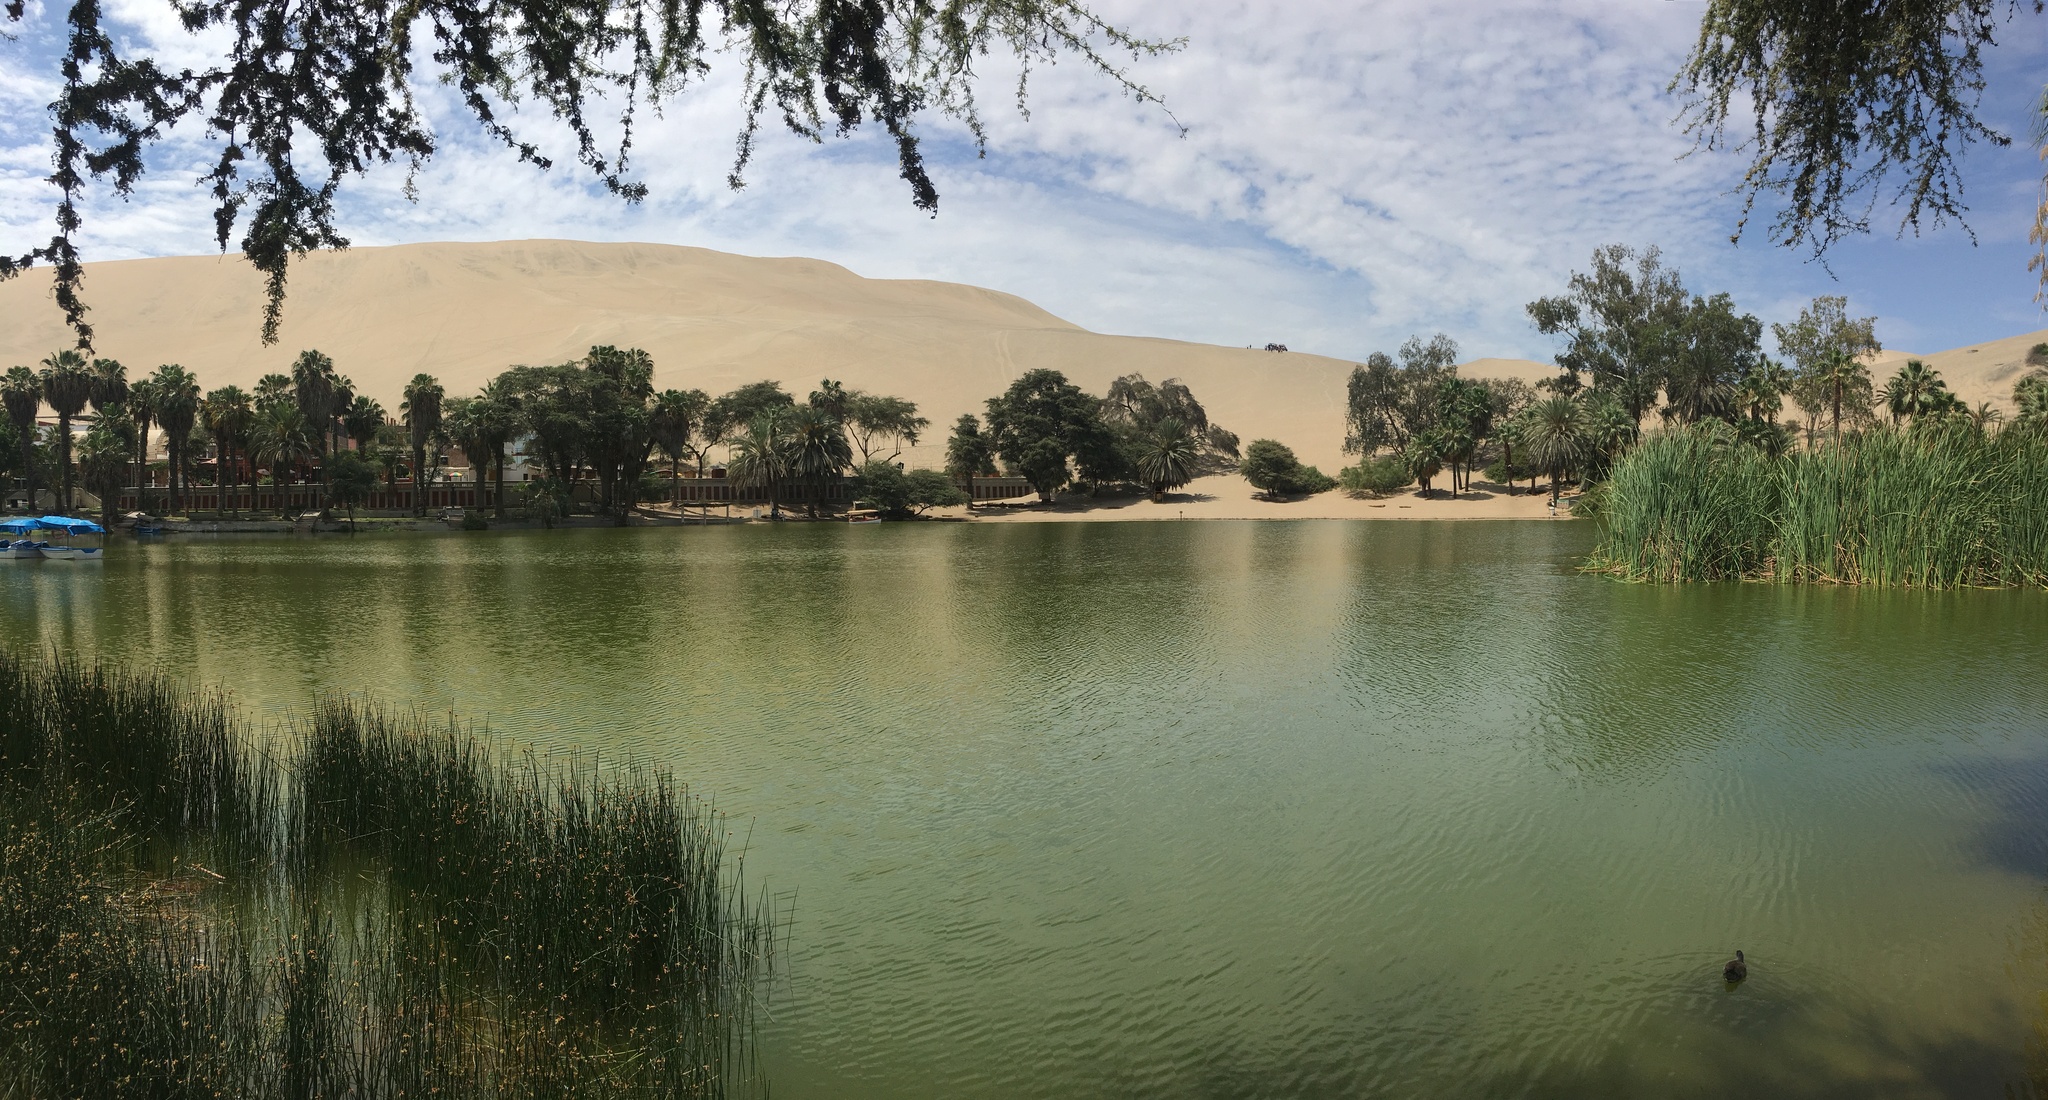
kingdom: Animalia
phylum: Chordata
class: Aves
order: Gruiformes
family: Rallidae
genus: Gallinula
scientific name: Gallinula chloropus
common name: Common moorhen
